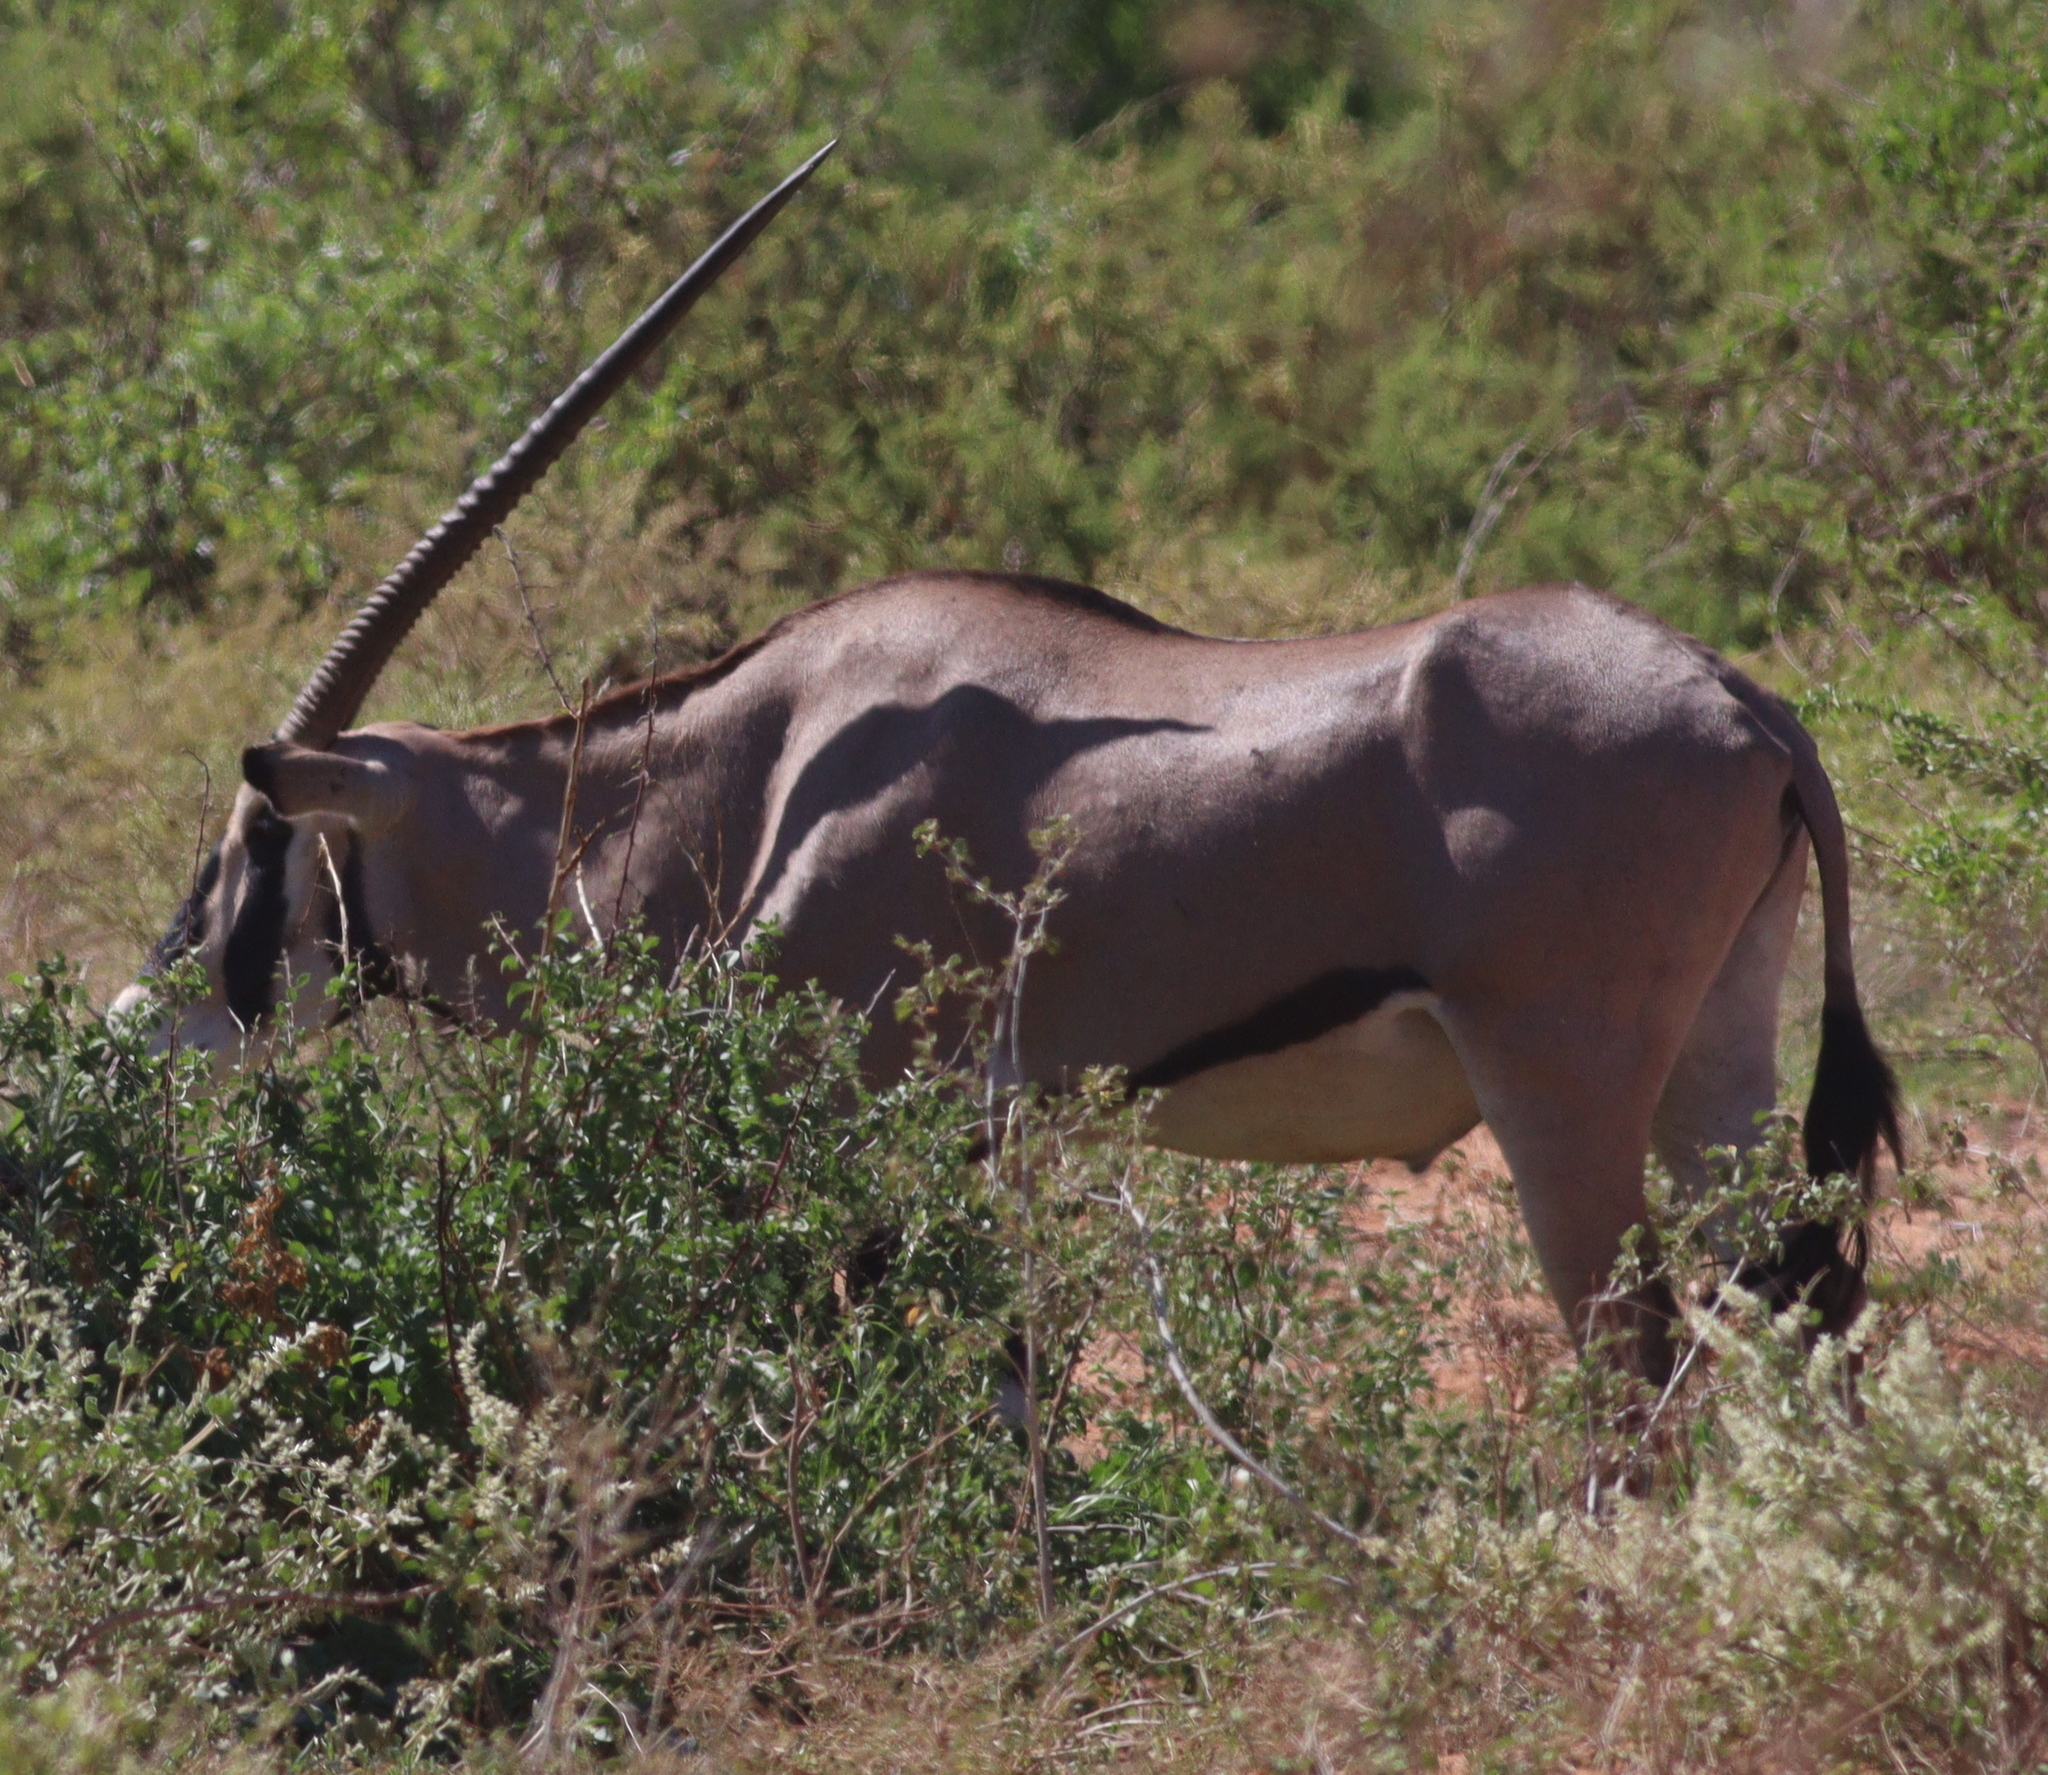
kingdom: Animalia
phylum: Chordata
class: Mammalia
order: Artiodactyla
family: Bovidae
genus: Oryx
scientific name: Oryx beisa
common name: Beisa
